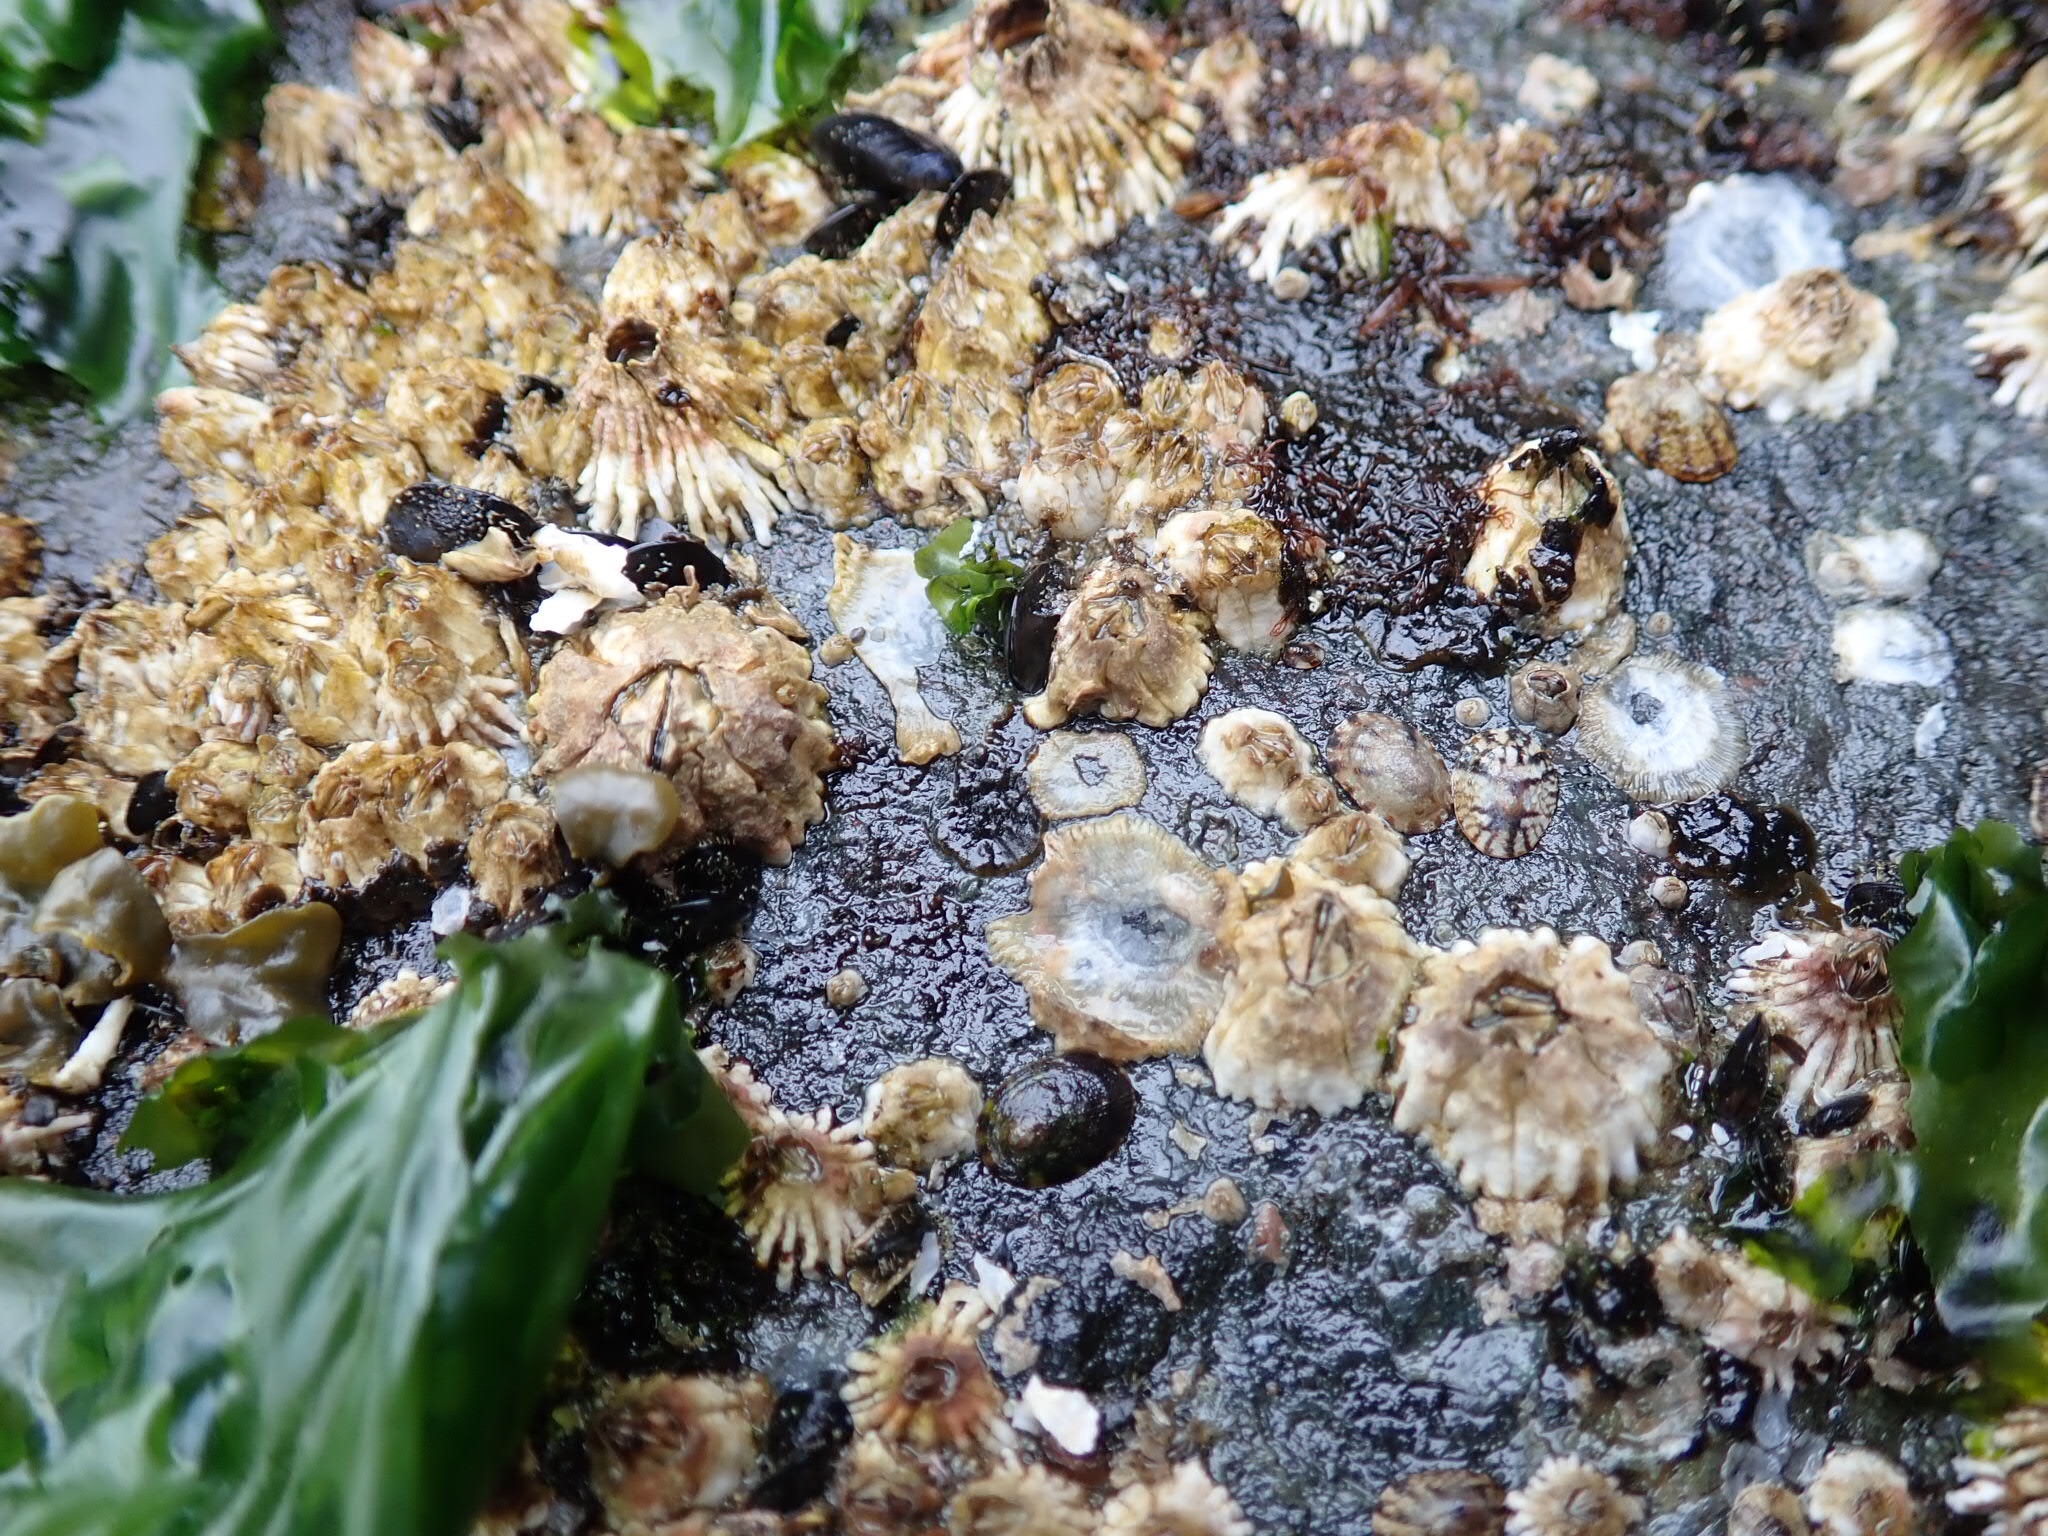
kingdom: Animalia
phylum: Arthropoda
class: Maxillopoda
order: Sessilia
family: Archaeobalanidae
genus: Semibalanus
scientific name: Semibalanus cariosus
